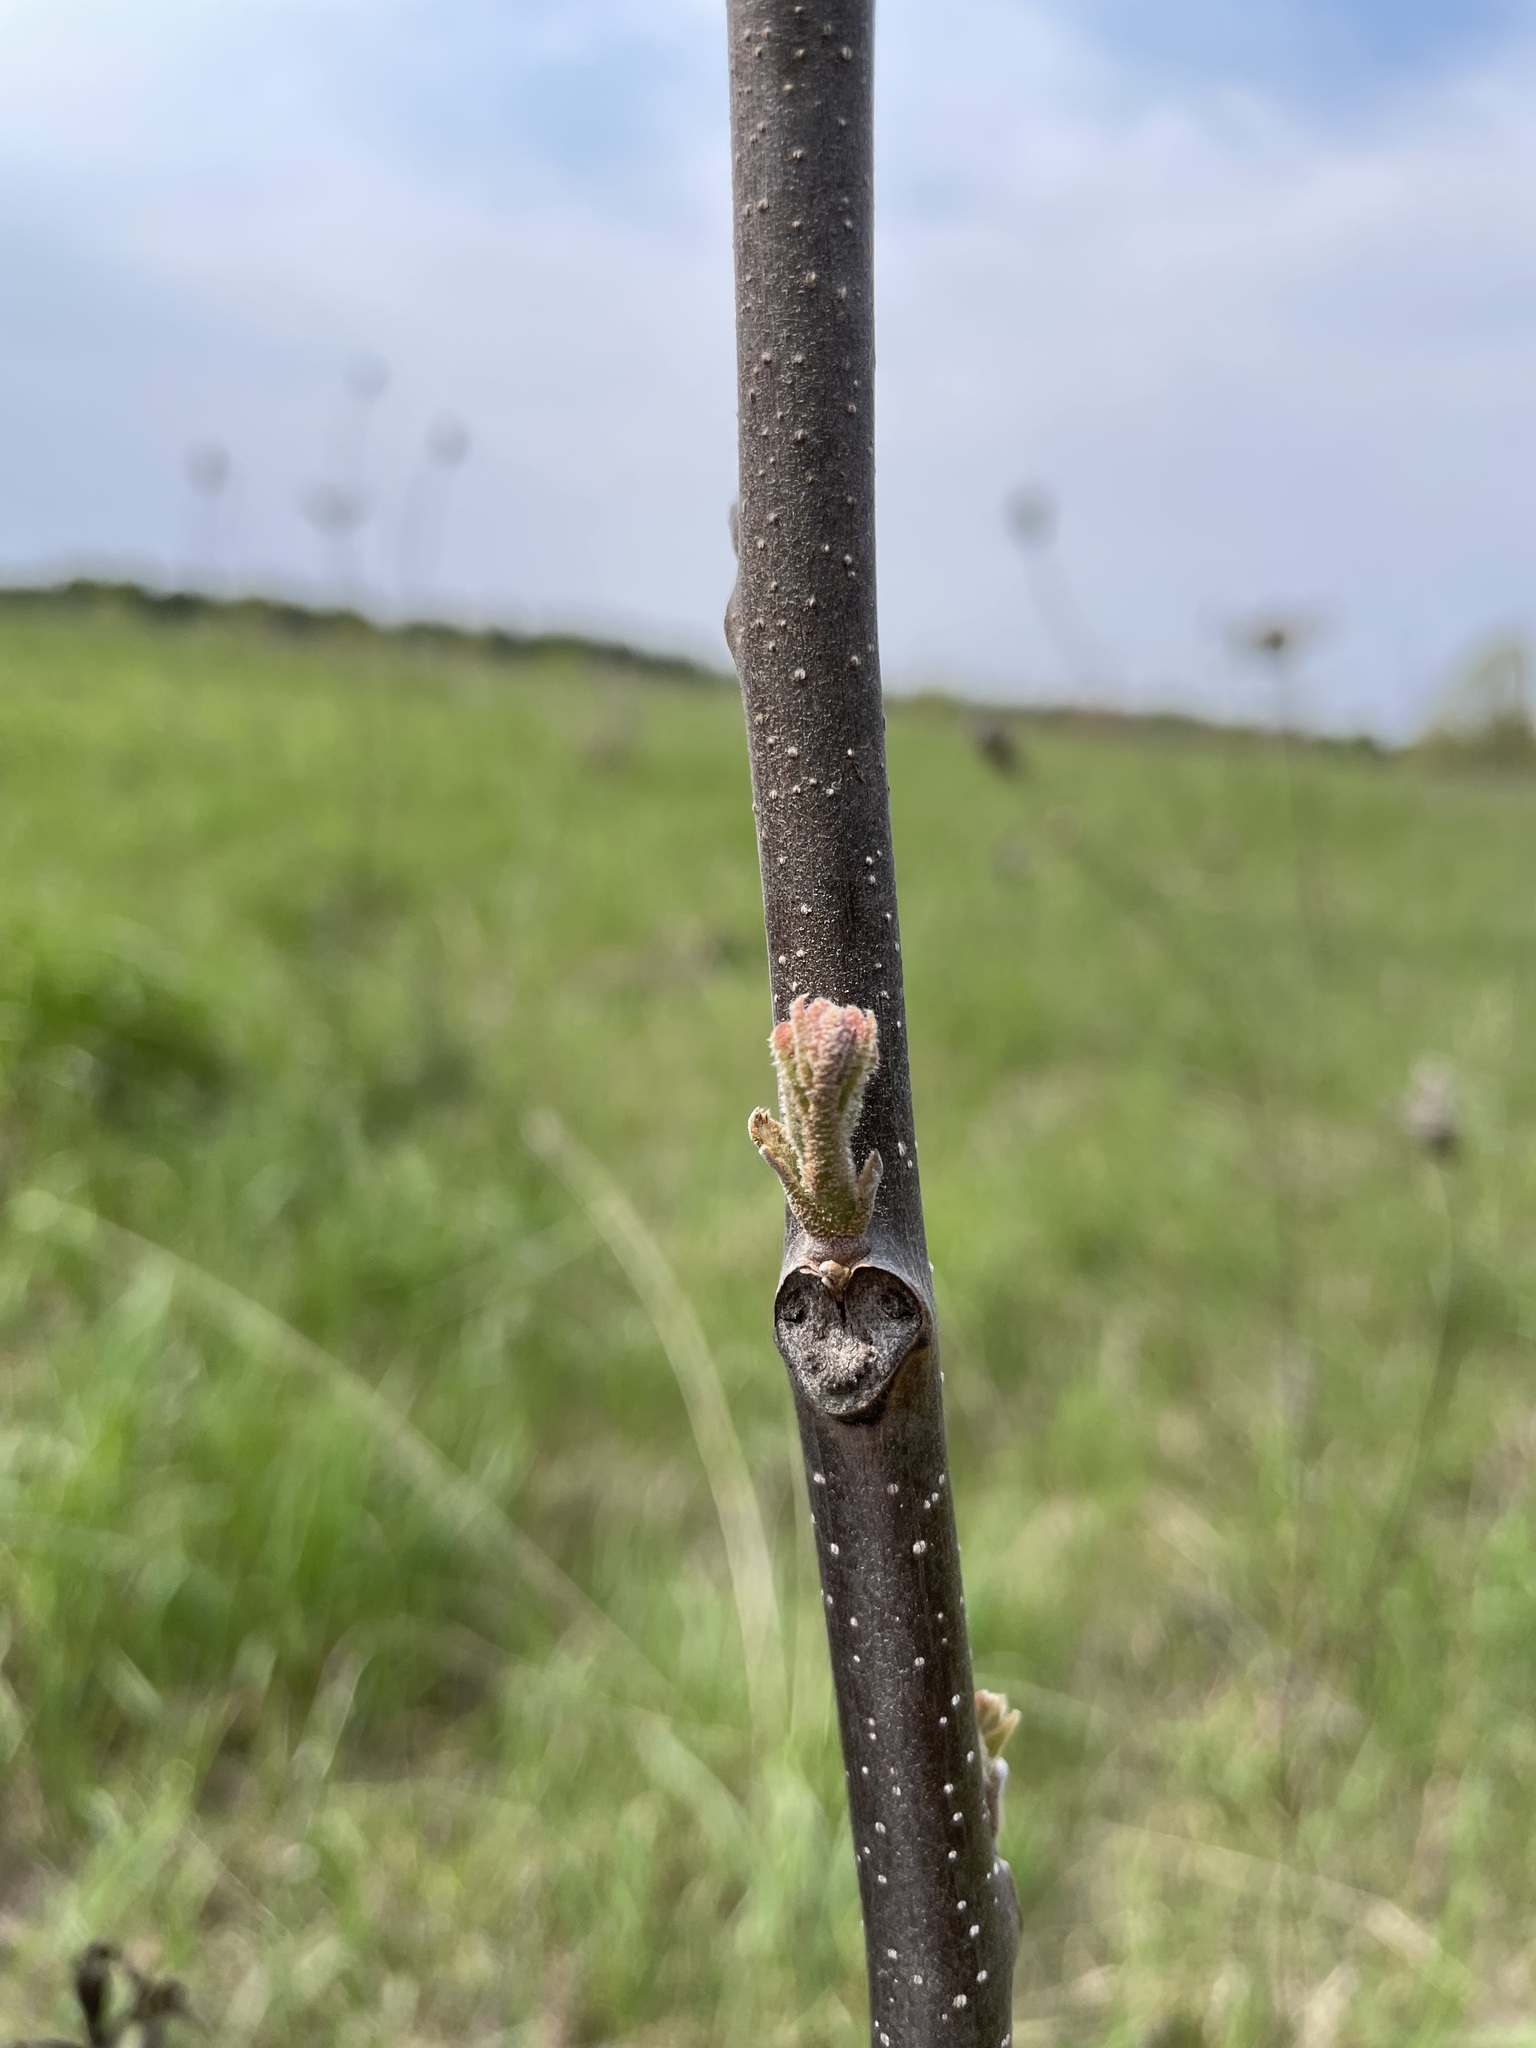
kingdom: Plantae
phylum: Tracheophyta
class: Magnoliopsida
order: Fagales
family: Juglandaceae
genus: Juglans
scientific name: Juglans nigra
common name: Black walnut
